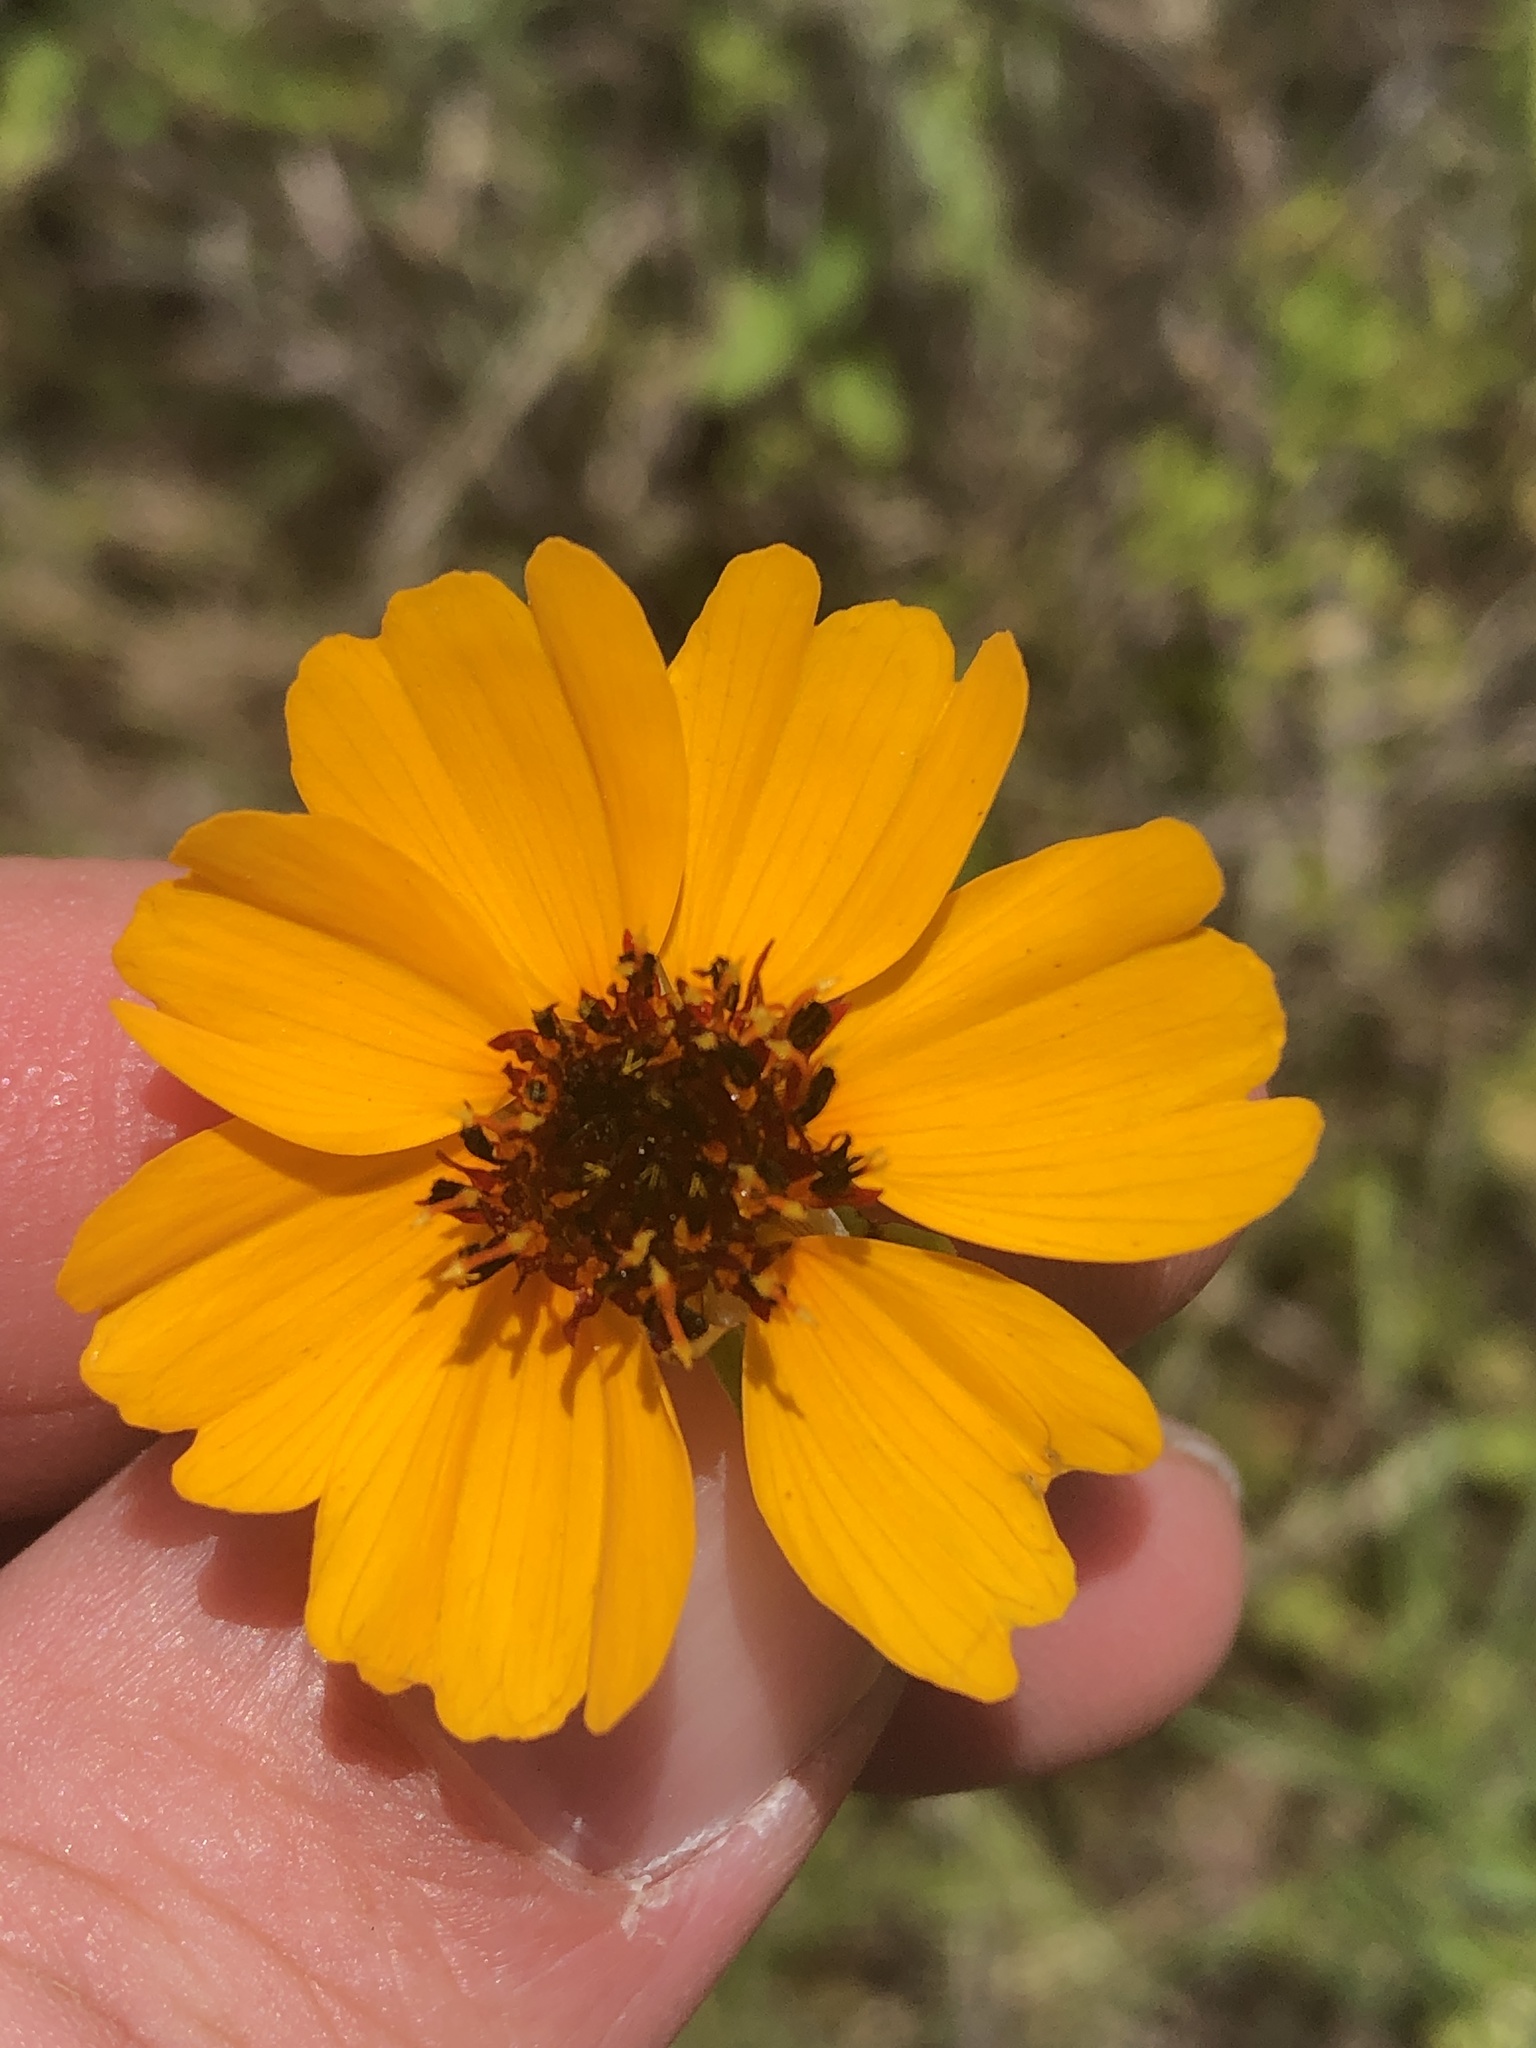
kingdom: Plantae
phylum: Tracheophyta
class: Magnoliopsida
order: Asterales
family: Asteraceae
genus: Thelesperma
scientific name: Thelesperma filifolium
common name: Stiff greenthread
